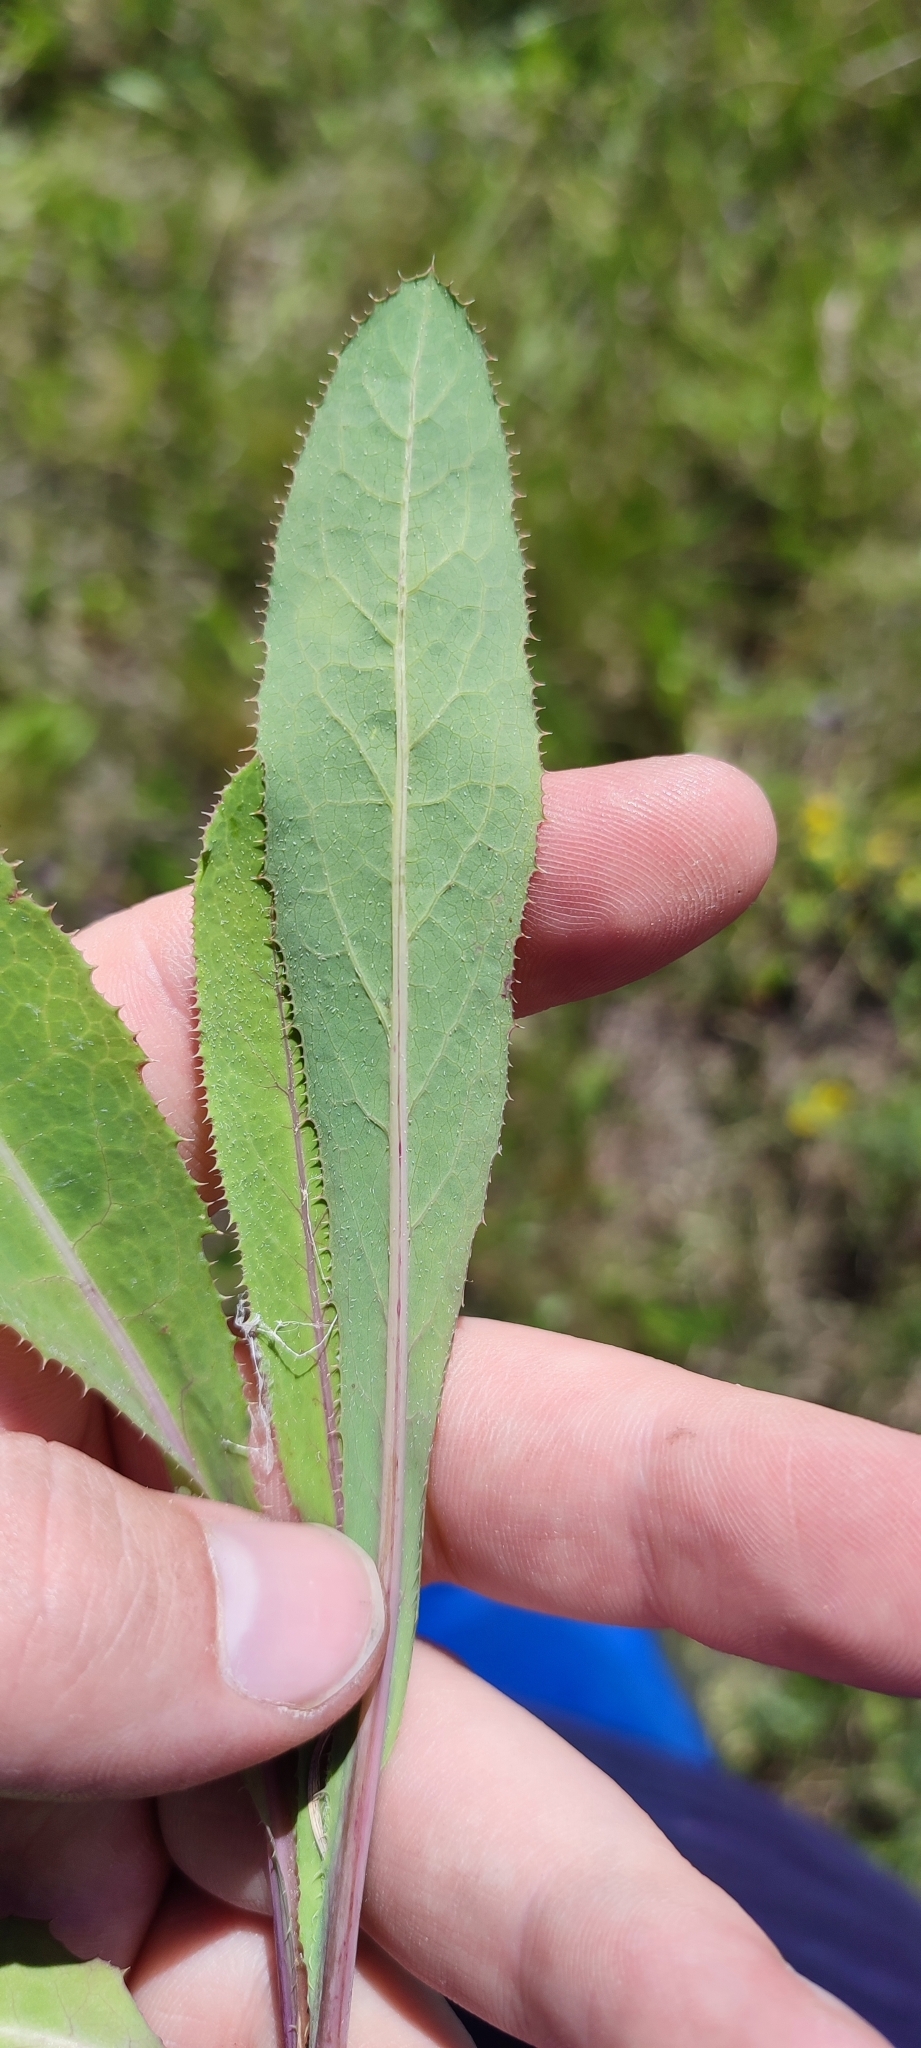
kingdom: Plantae
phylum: Tracheophyta
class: Magnoliopsida
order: Asterales
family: Asteraceae
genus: Sonchus
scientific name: Sonchus arvensis
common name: Perennial sow-thistle
